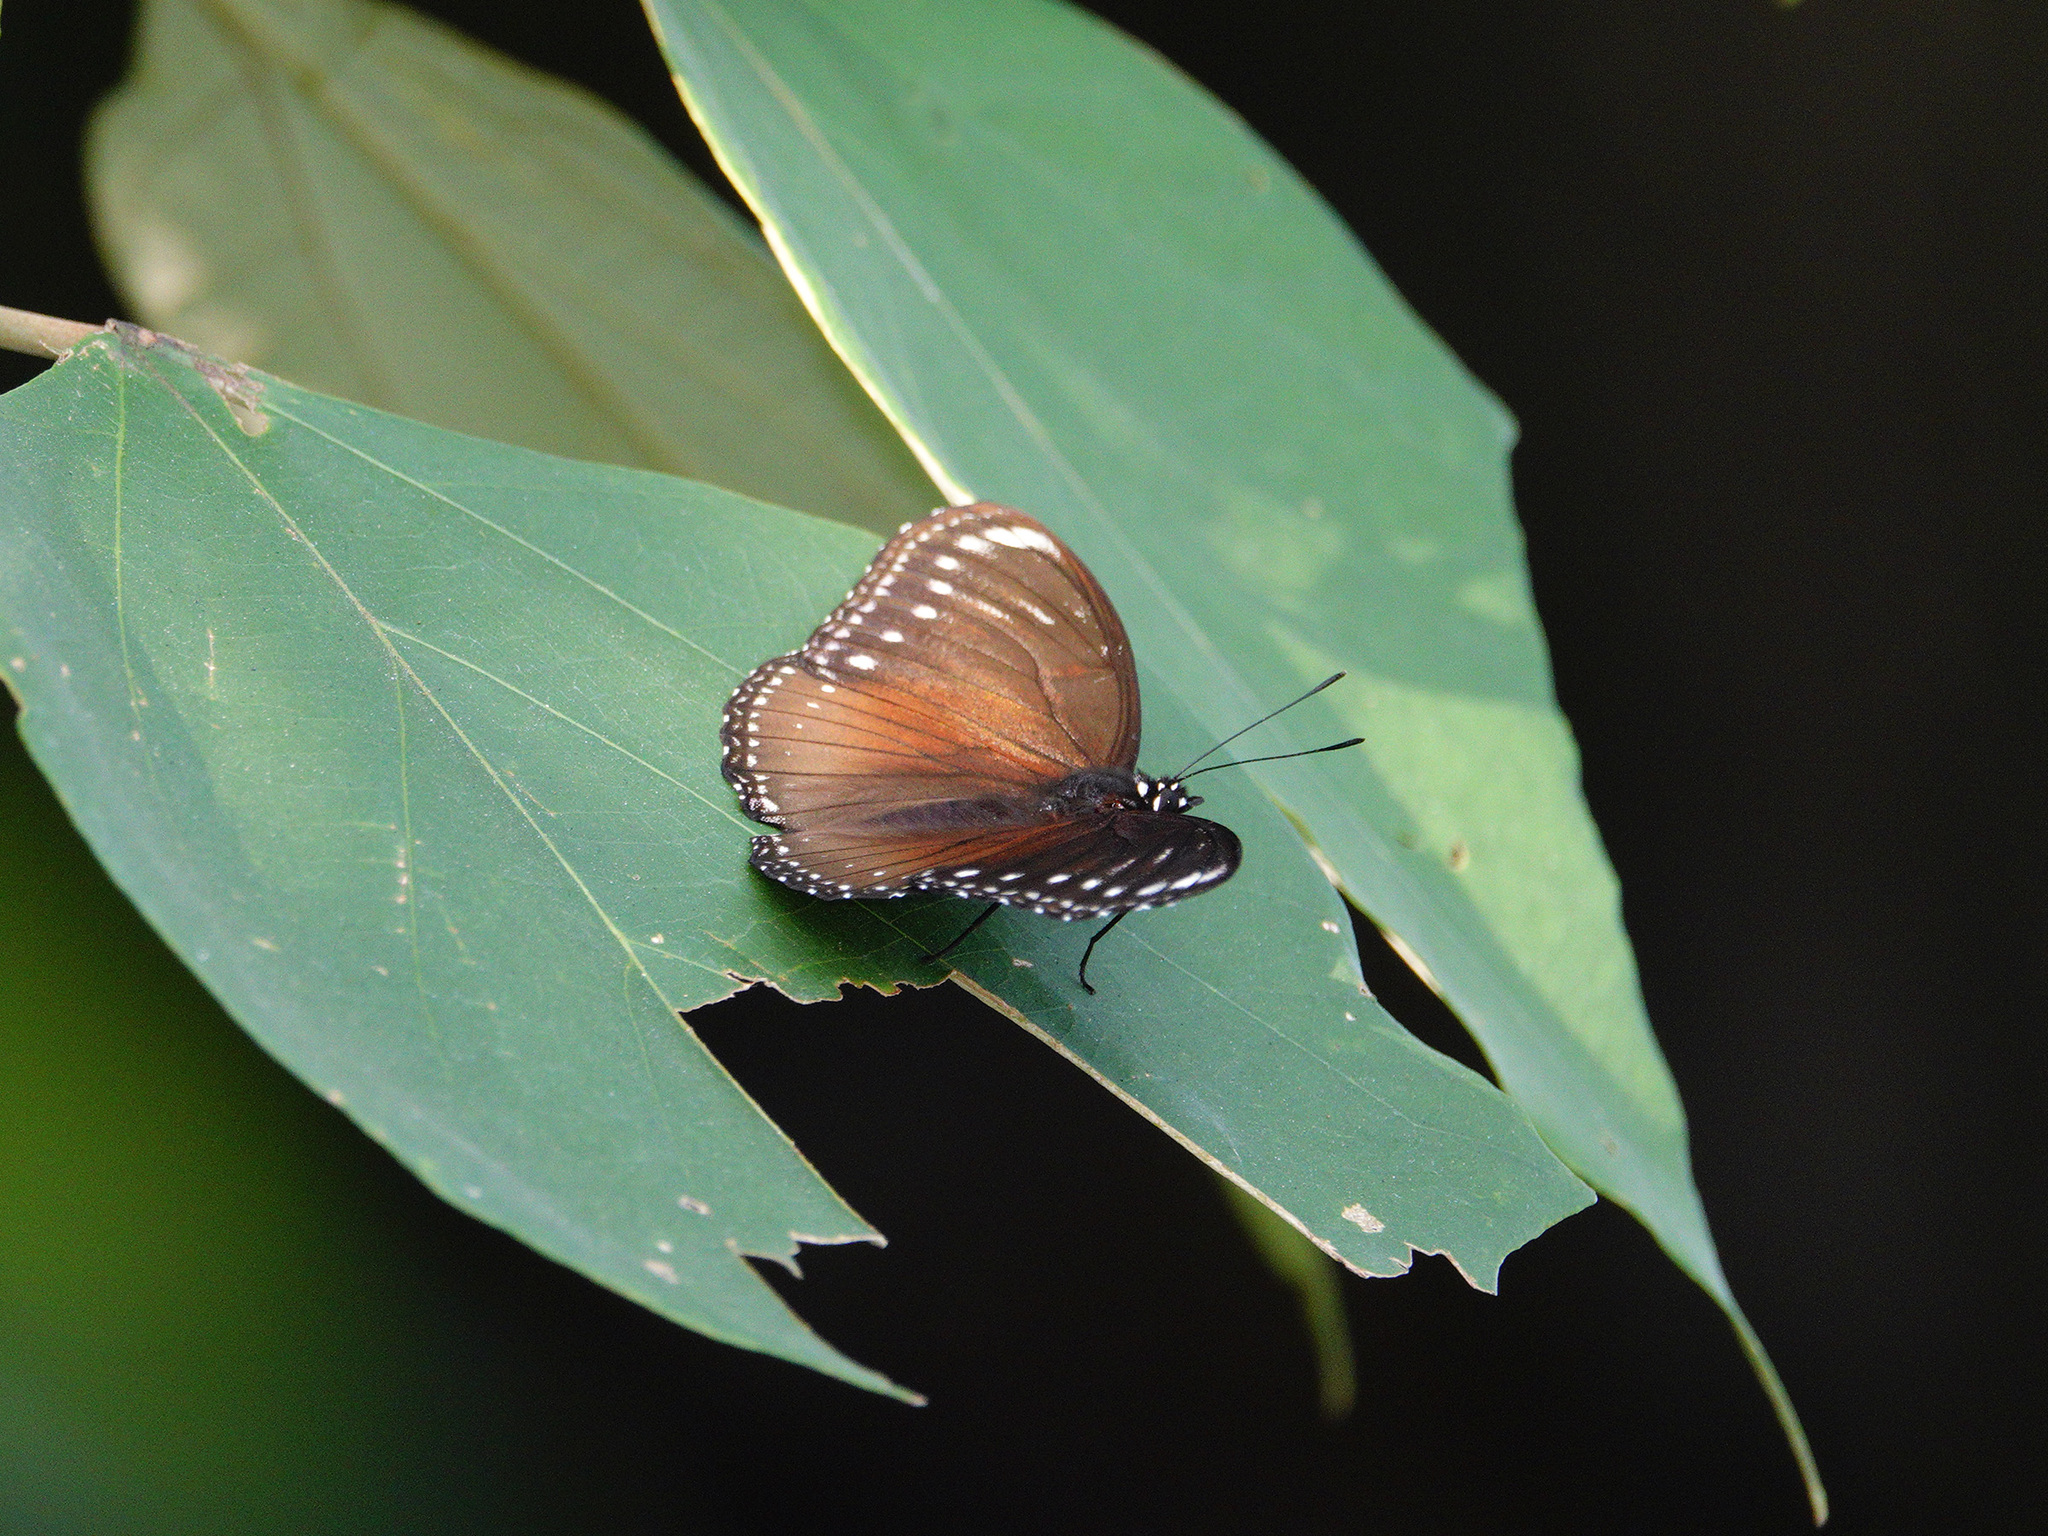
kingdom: Animalia
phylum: Arthropoda
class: Insecta
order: Lepidoptera
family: Nymphalidae
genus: Hypolimnas
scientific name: Hypolimnas anomala
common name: Malayan eggfly
